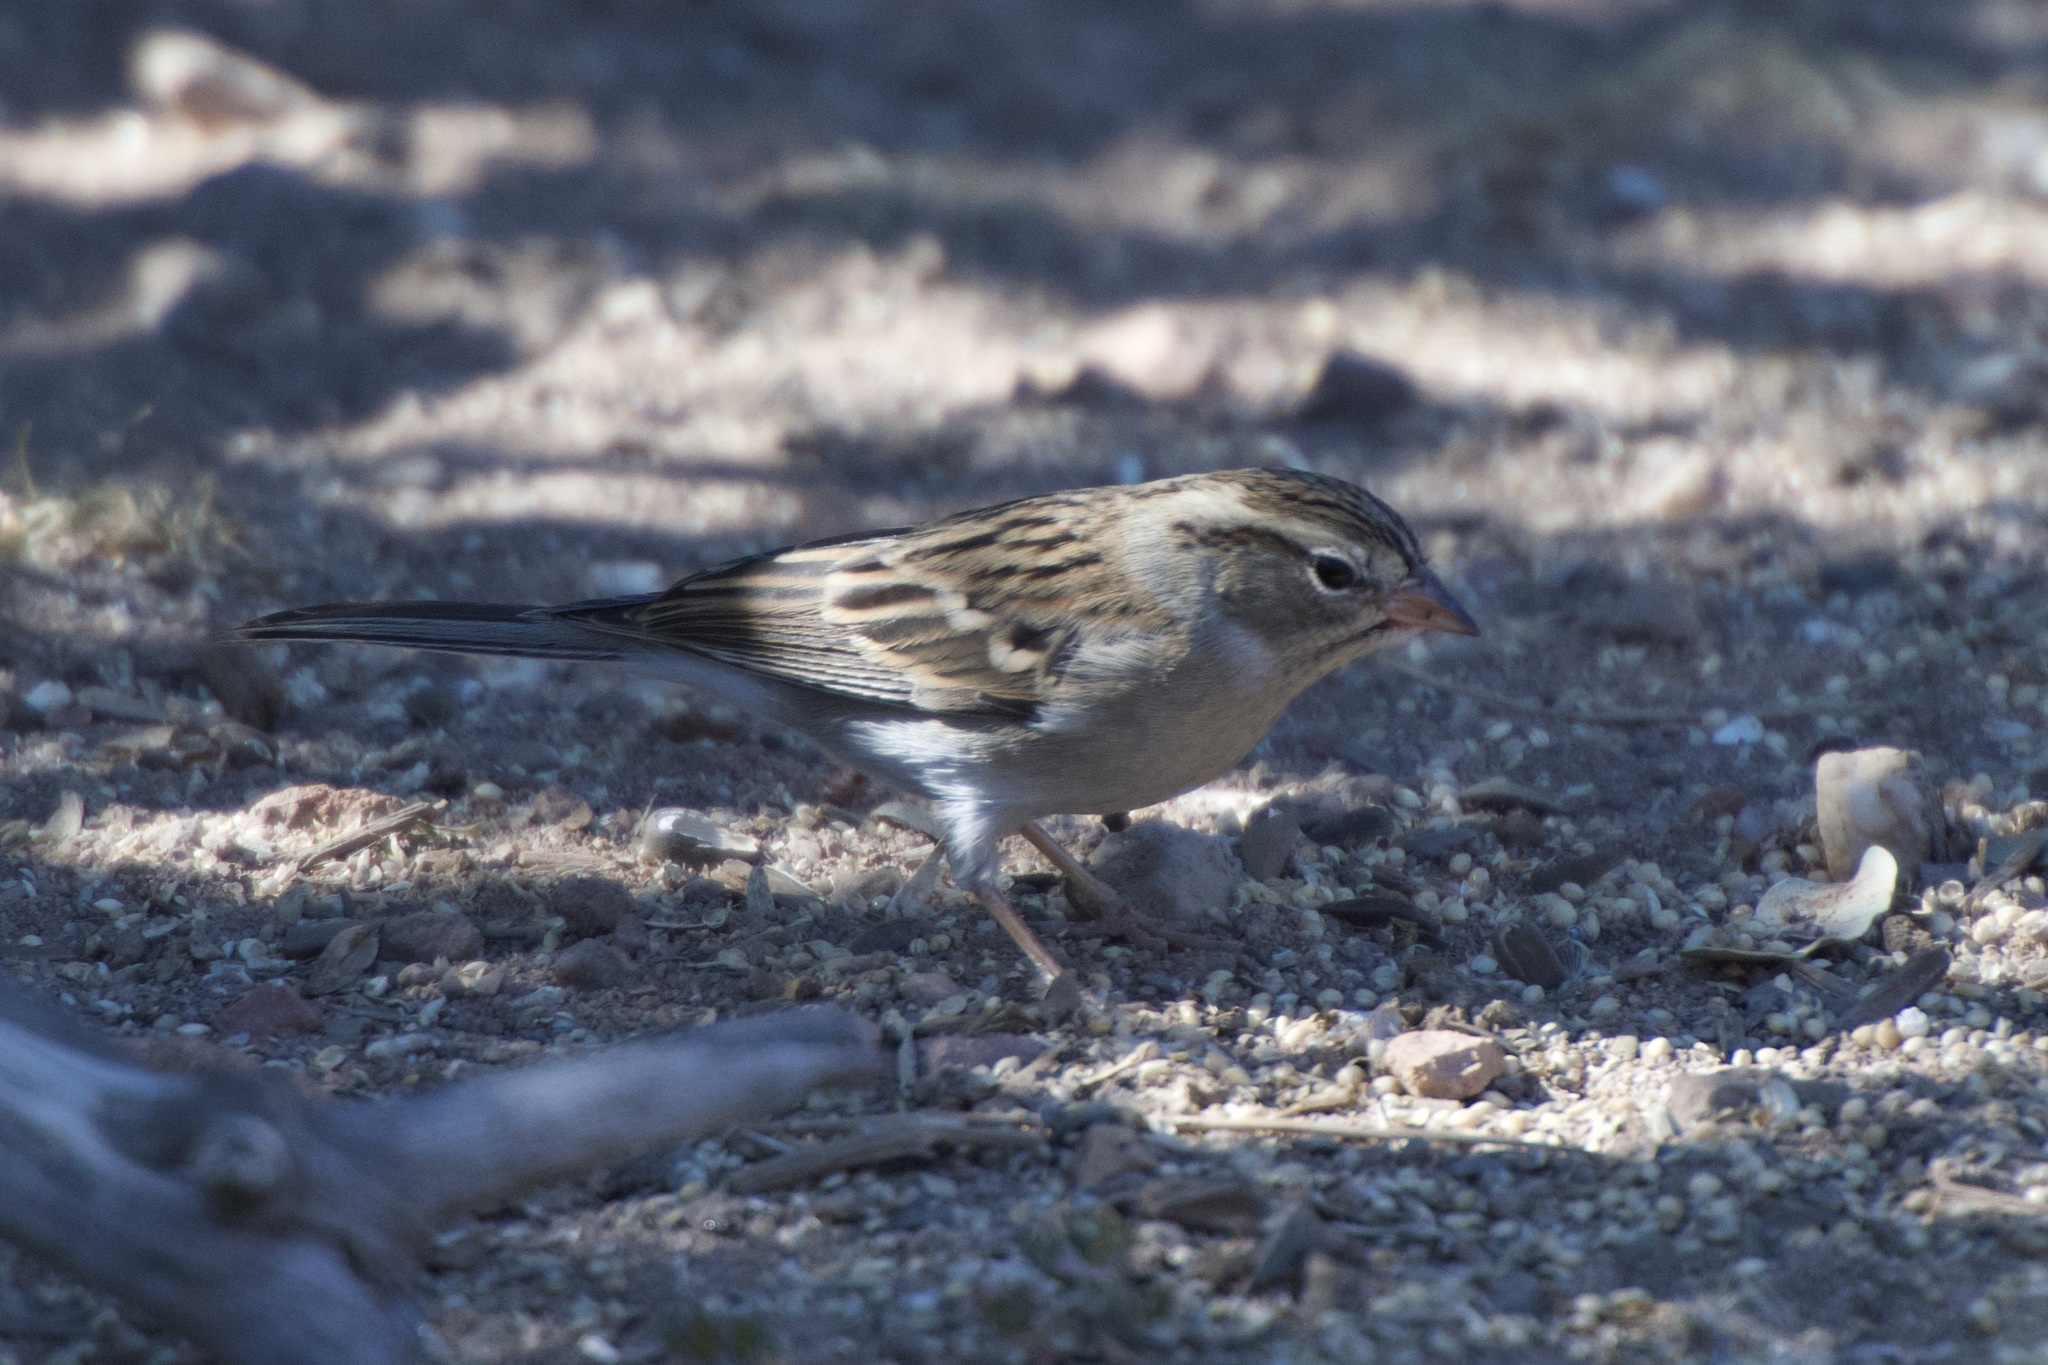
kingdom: Animalia
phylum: Chordata
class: Aves
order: Passeriformes
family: Passerellidae
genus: Spizella
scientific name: Spizella passerina
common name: Chipping sparrow
